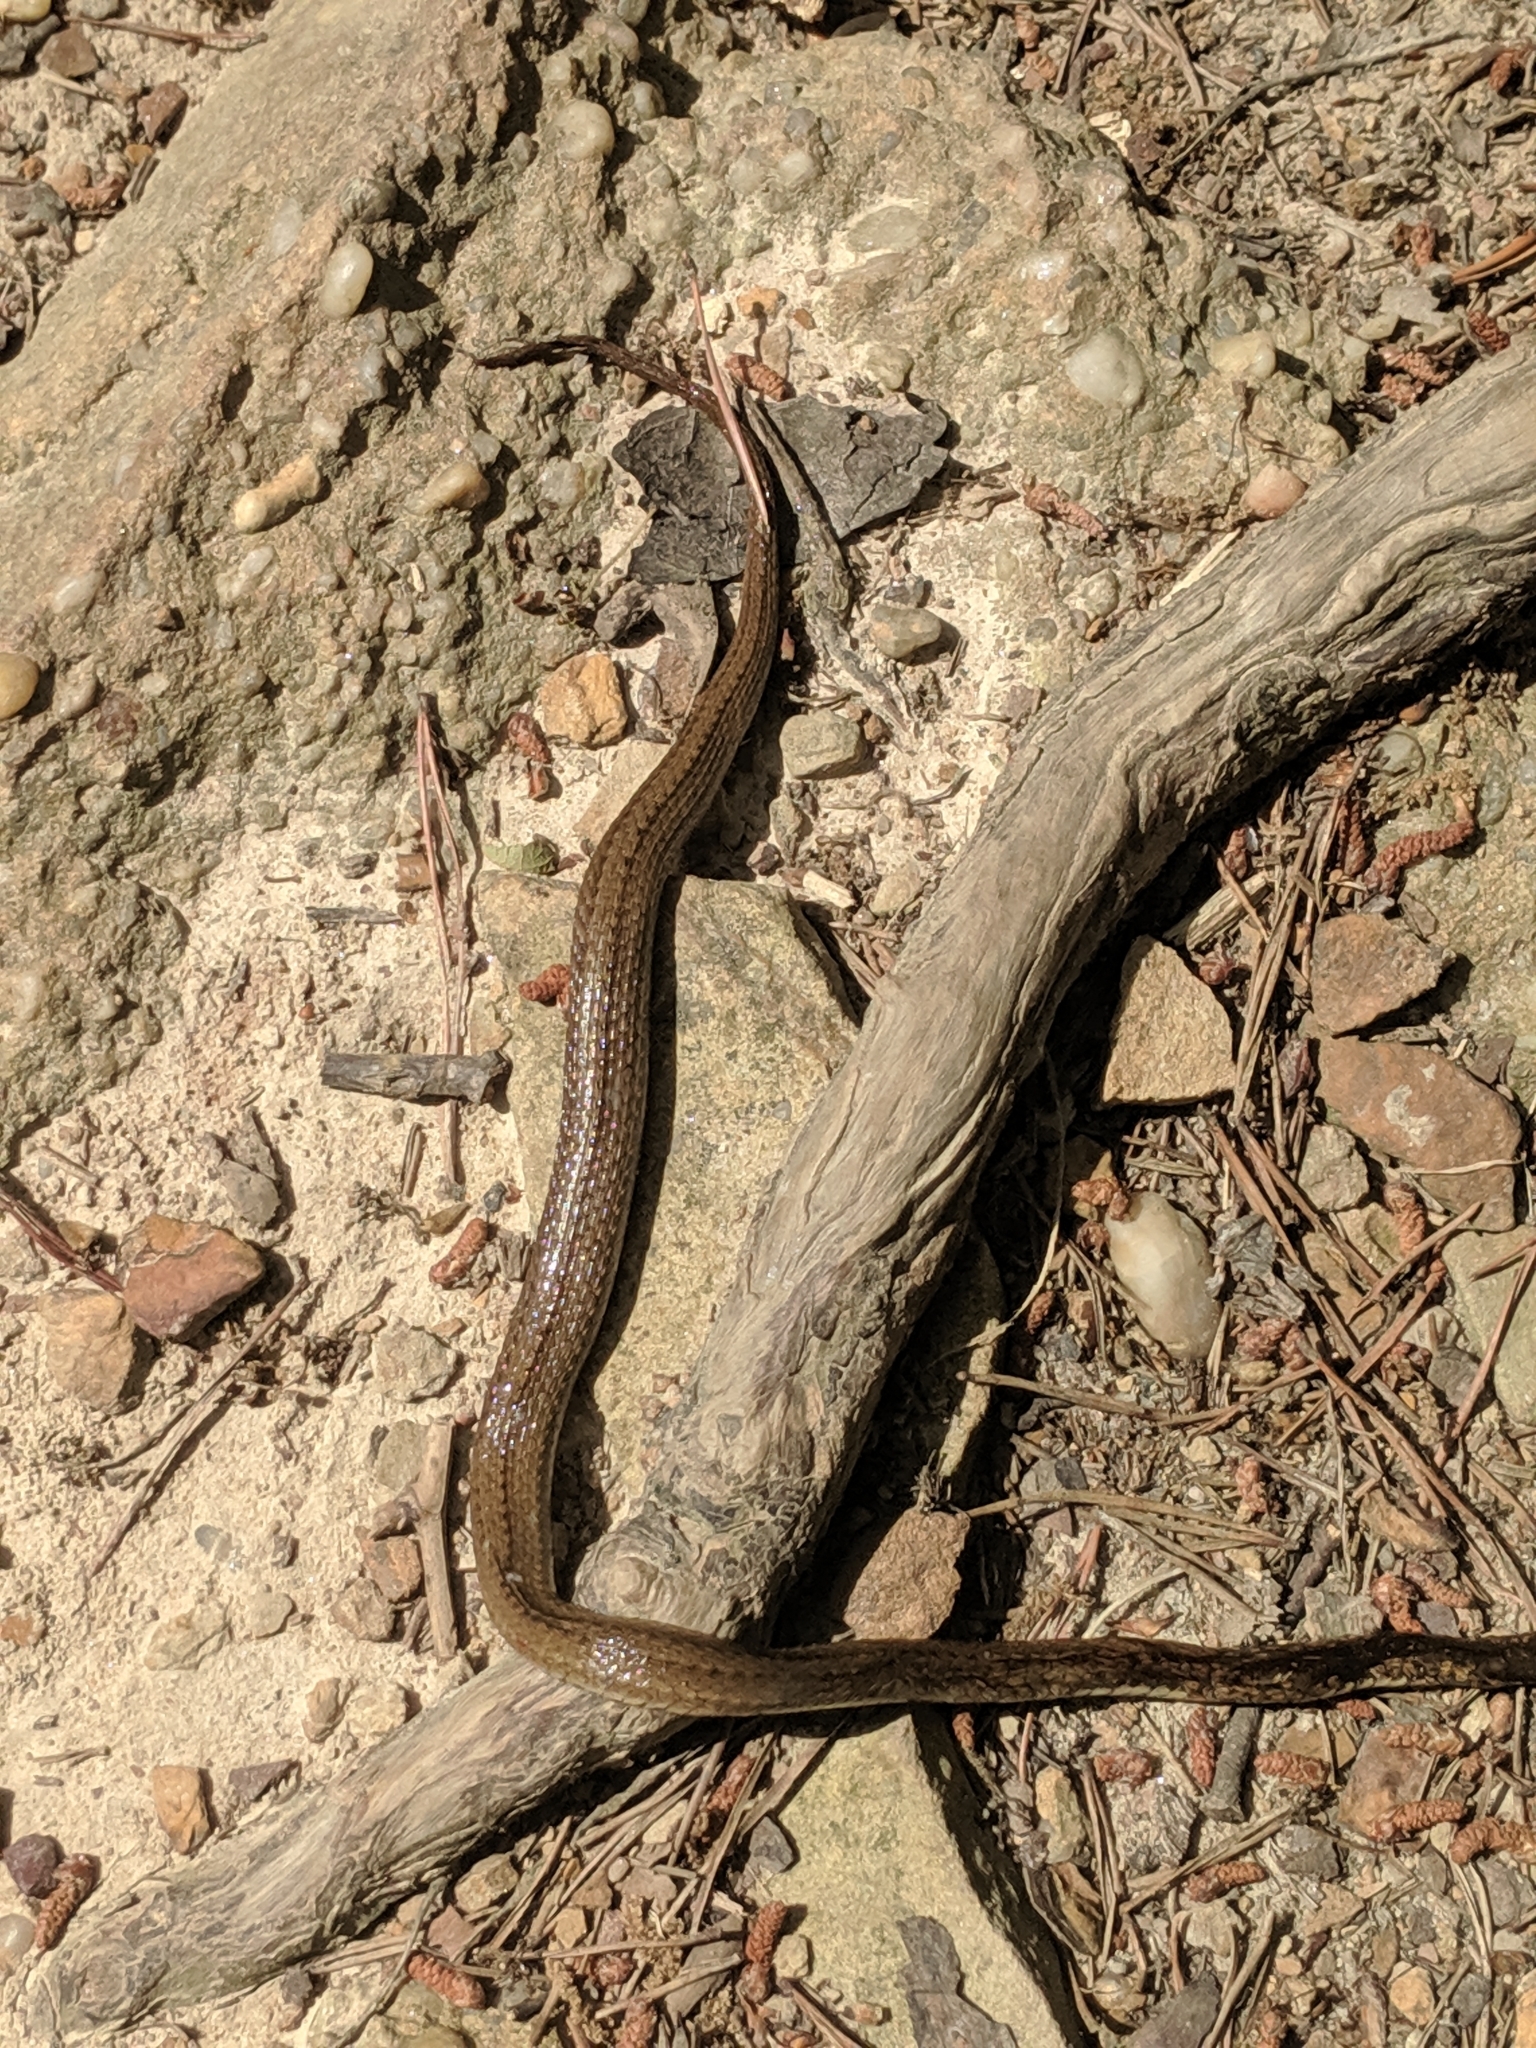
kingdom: Animalia
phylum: Chordata
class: Squamata
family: Colubridae
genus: Storeria
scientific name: Storeria occipitomaculata
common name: Redbelly snake
